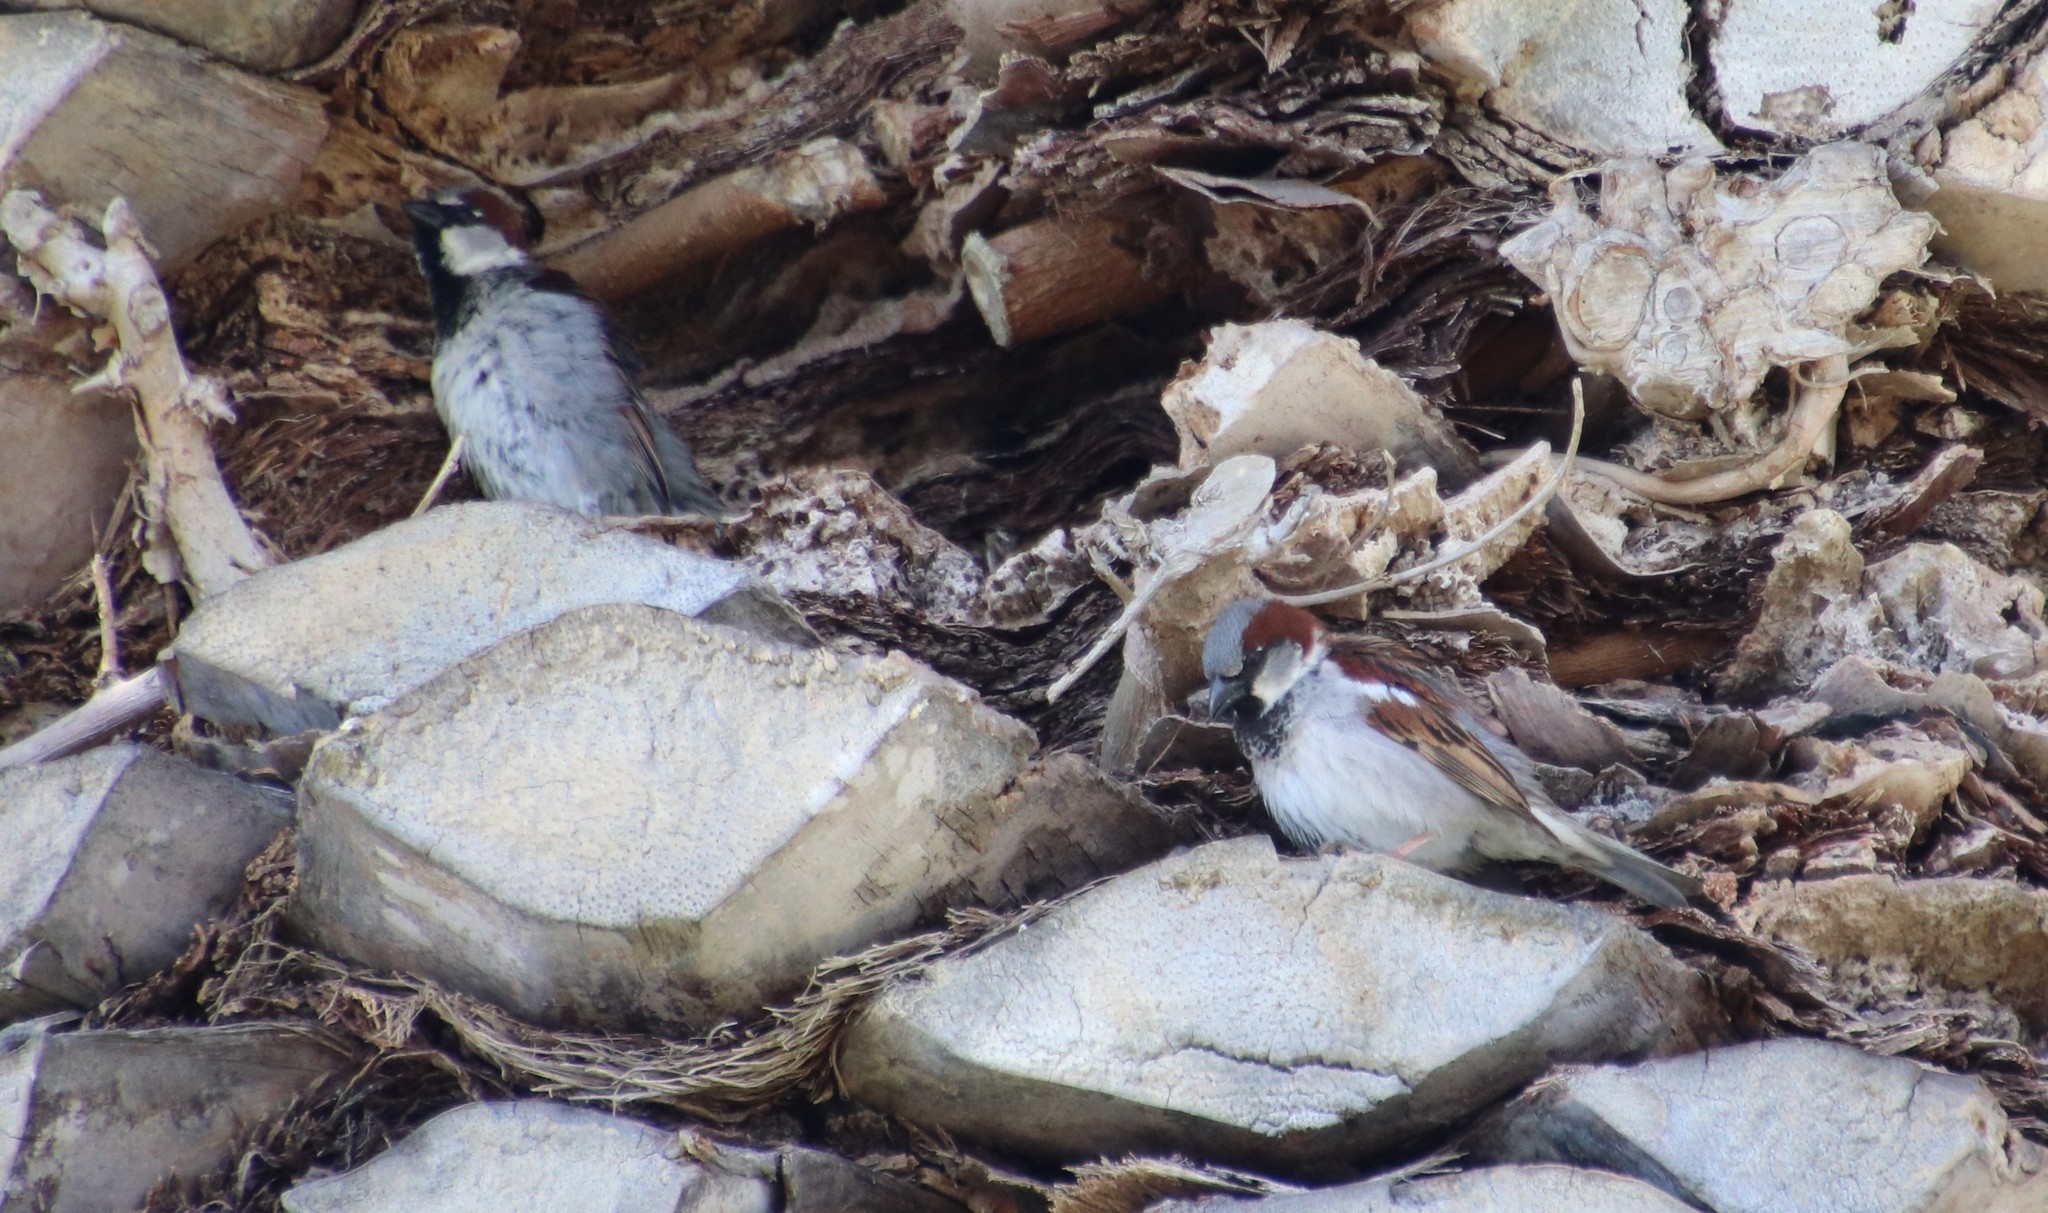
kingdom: Animalia
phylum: Chordata
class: Aves
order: Passeriformes
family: Passeridae
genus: Passer
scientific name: Passer domesticus
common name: House sparrow
